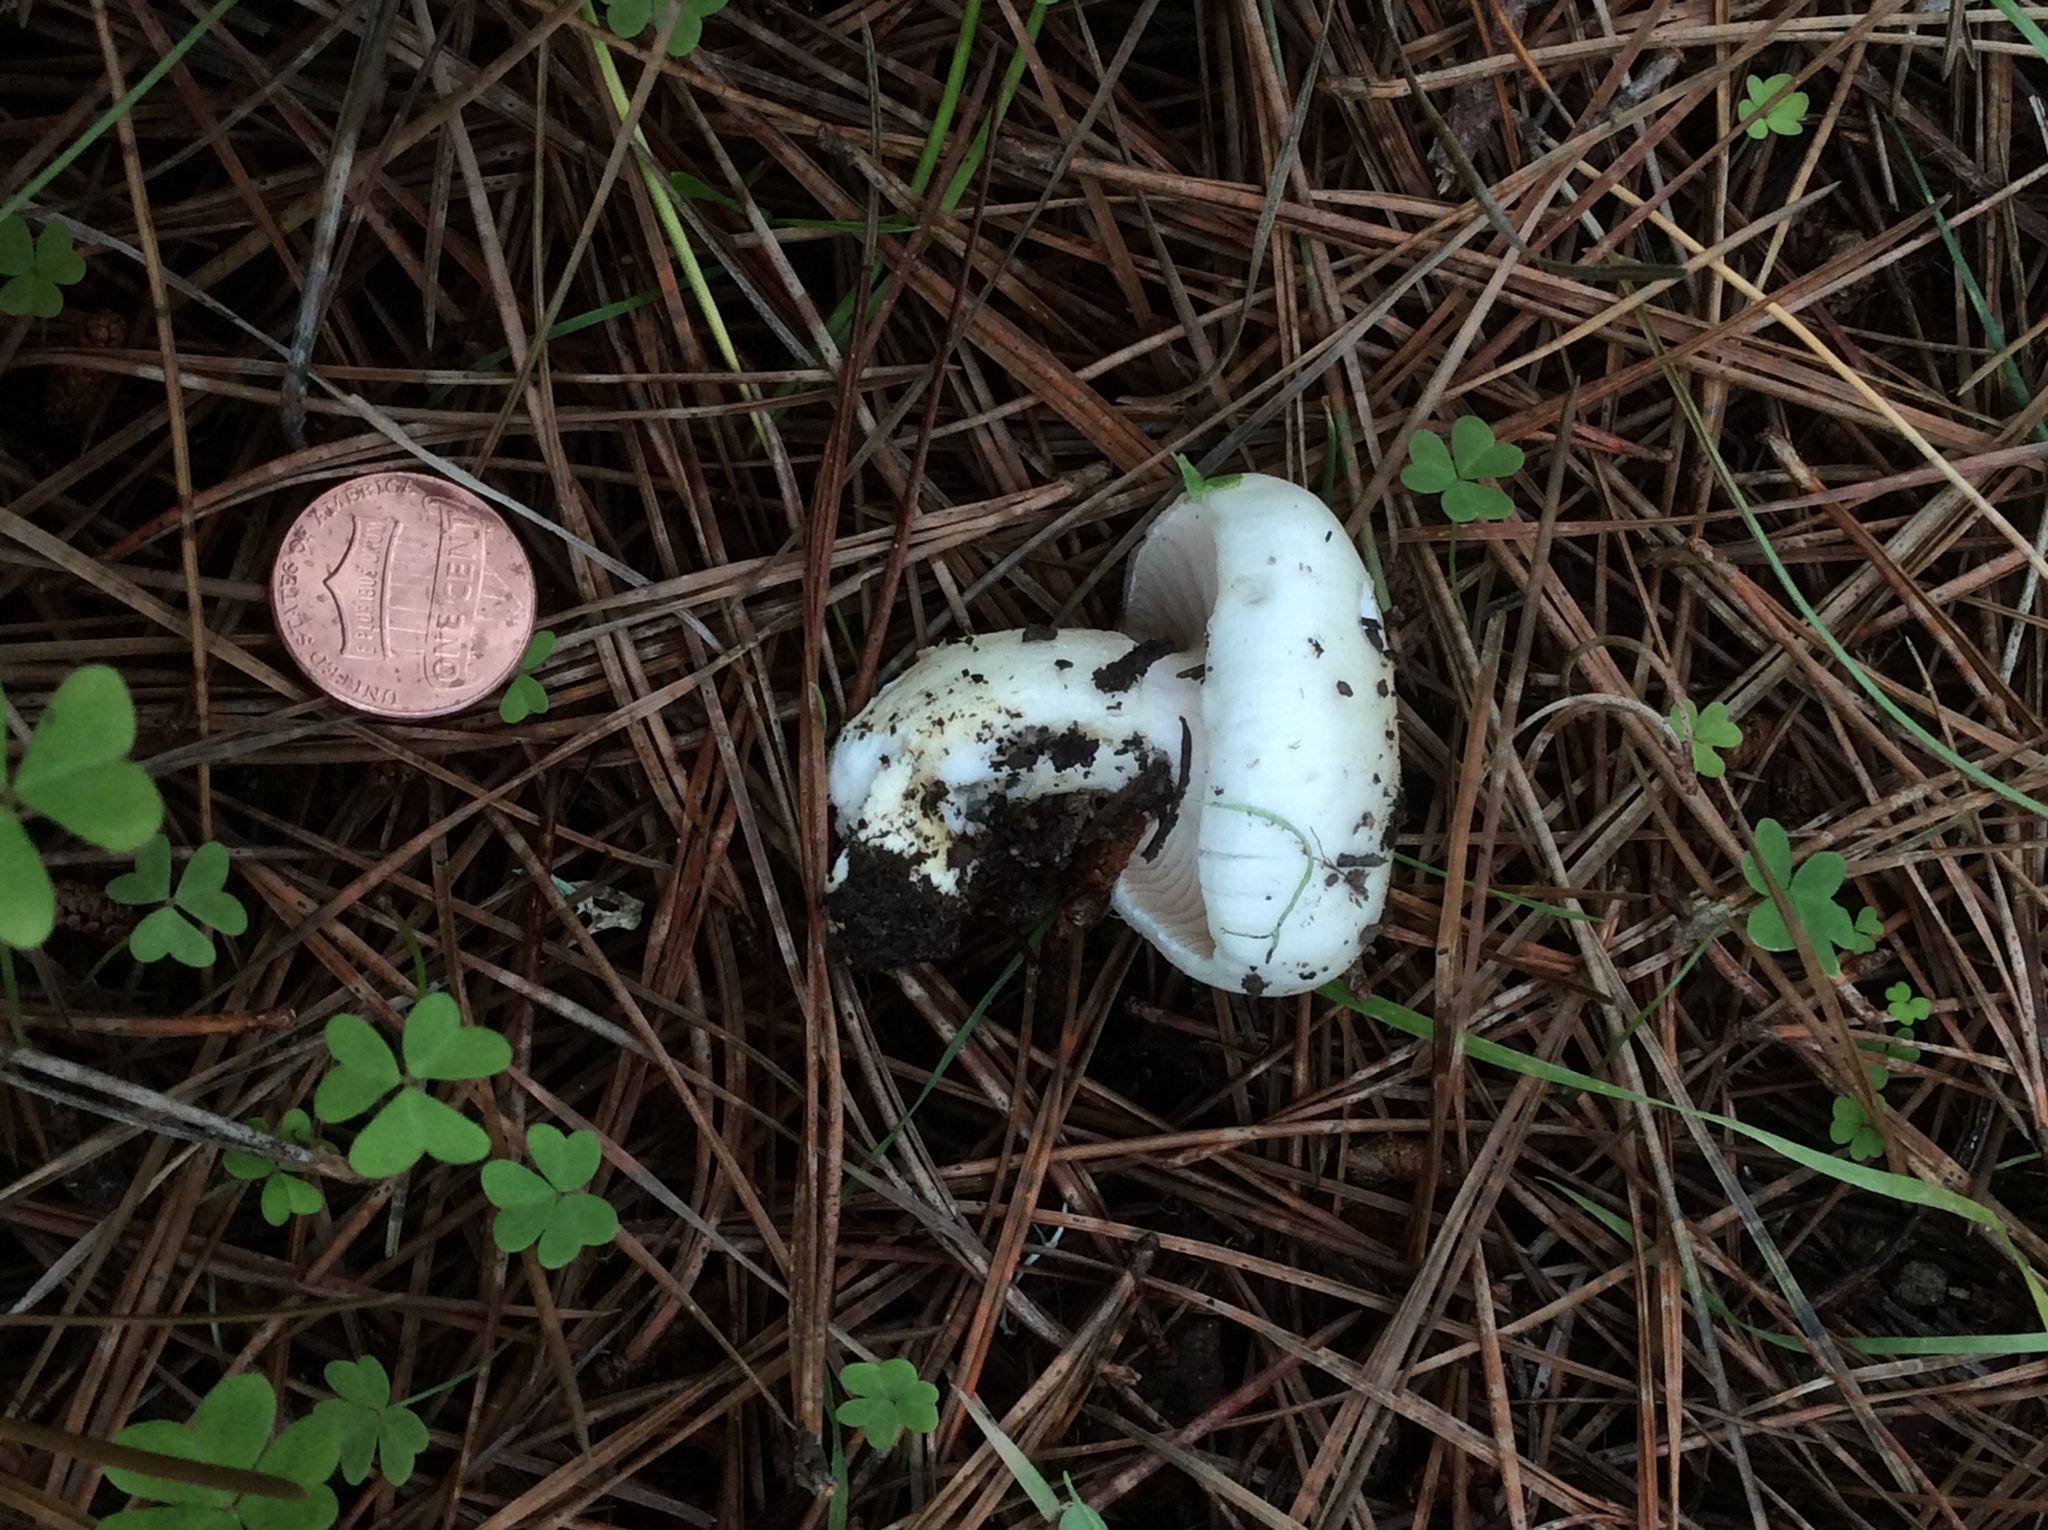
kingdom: Fungi
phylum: Basidiomycota
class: Agaricomycetes
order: Agaricales
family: Hygrophoraceae
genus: Hygrophorus
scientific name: Hygrophorus ligatus
